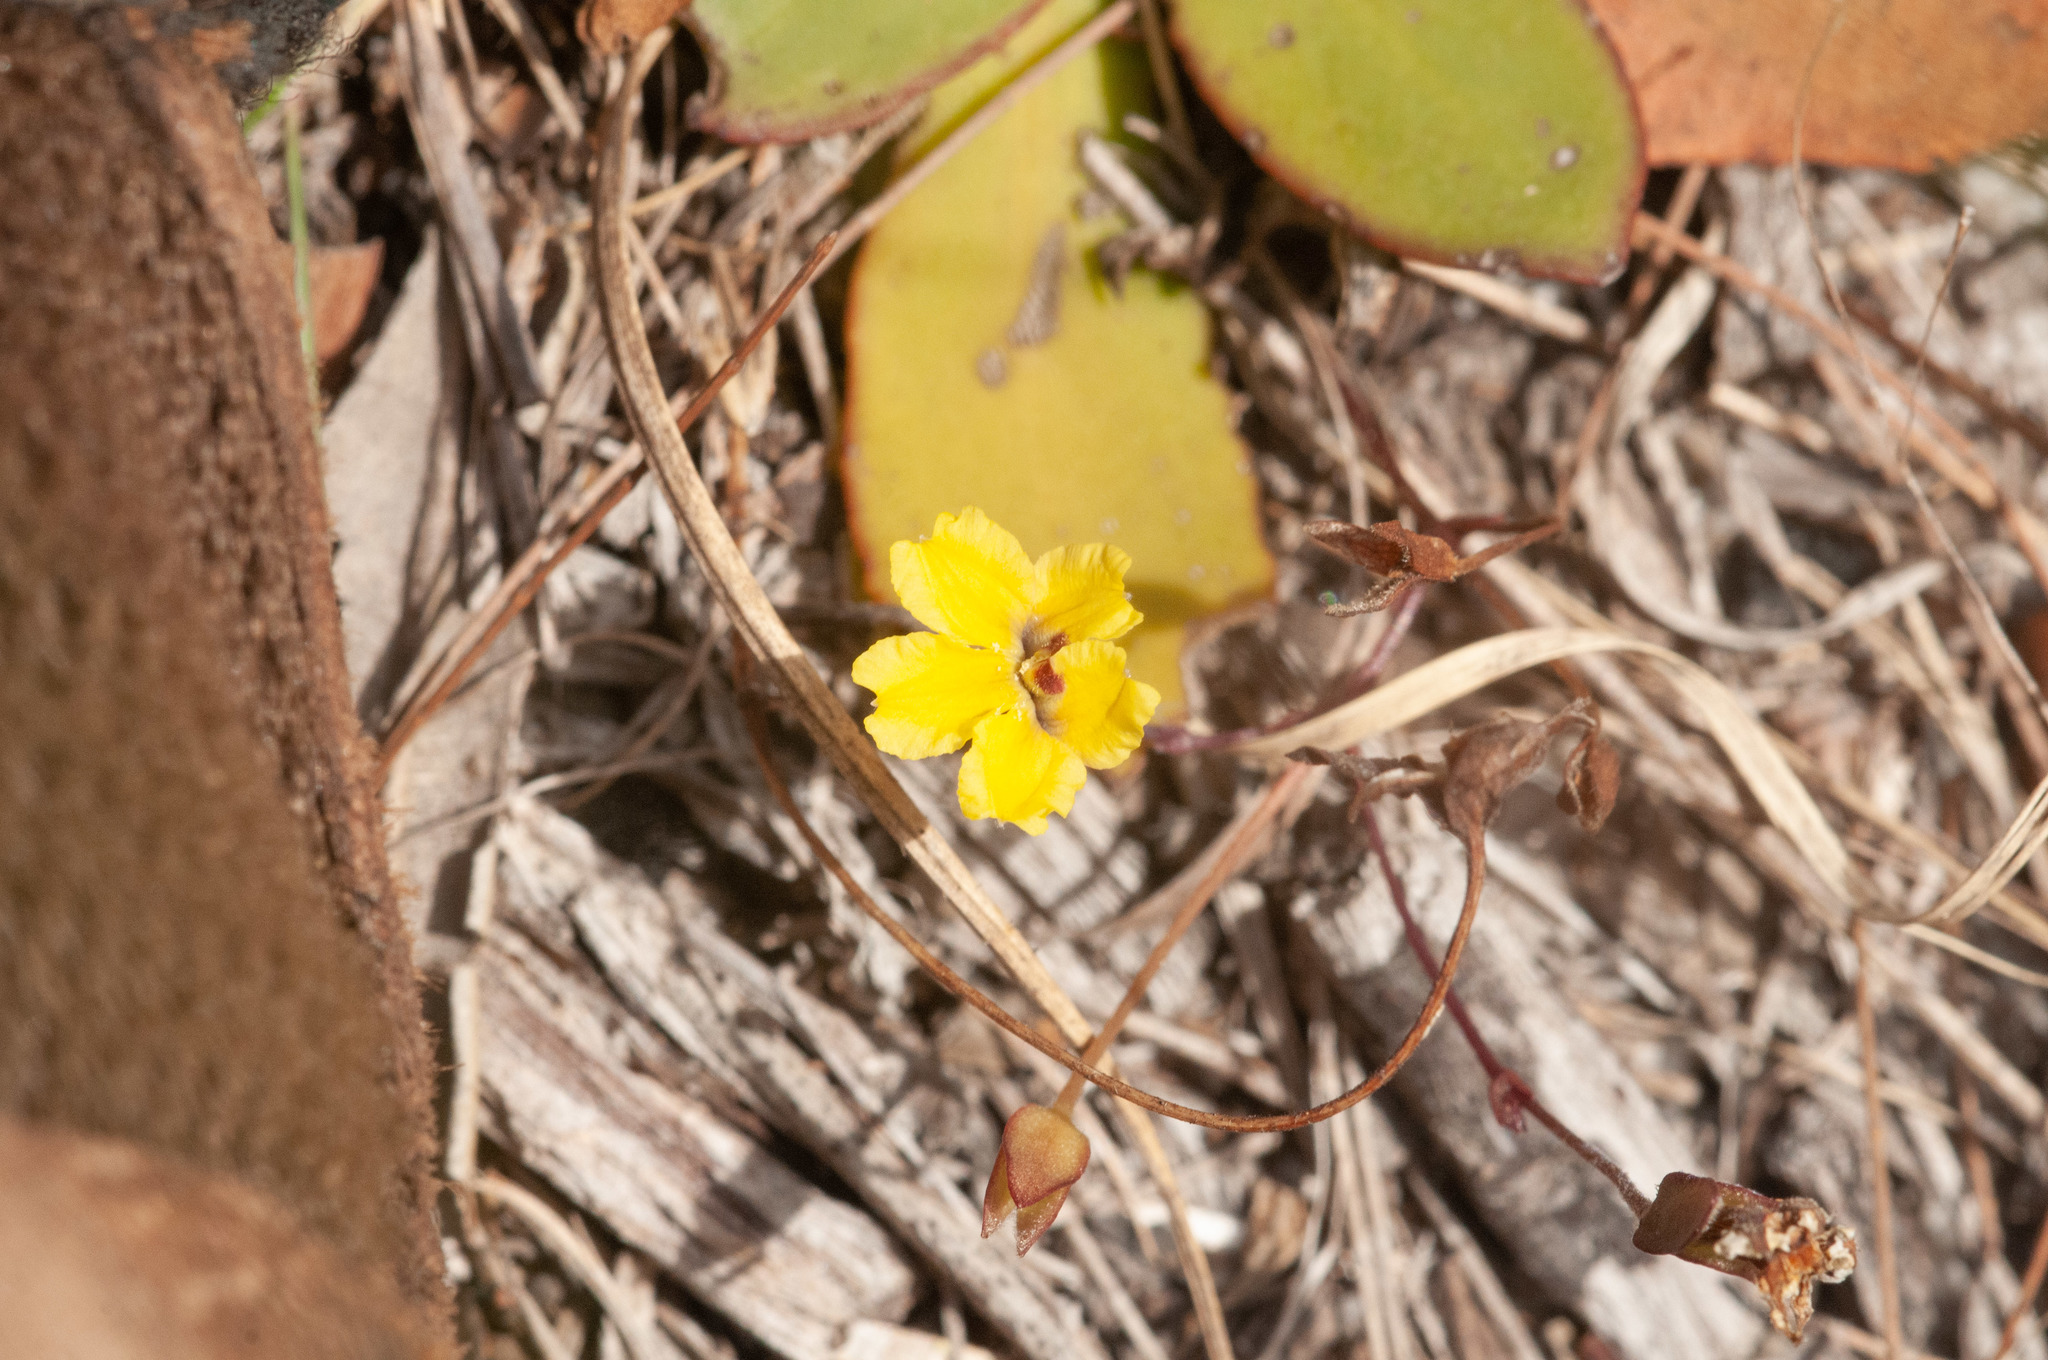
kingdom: Plantae
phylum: Tracheophyta
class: Magnoliopsida
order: Asterales
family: Goodeniaceae
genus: Goodenia
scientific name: Goodenia hederacea
